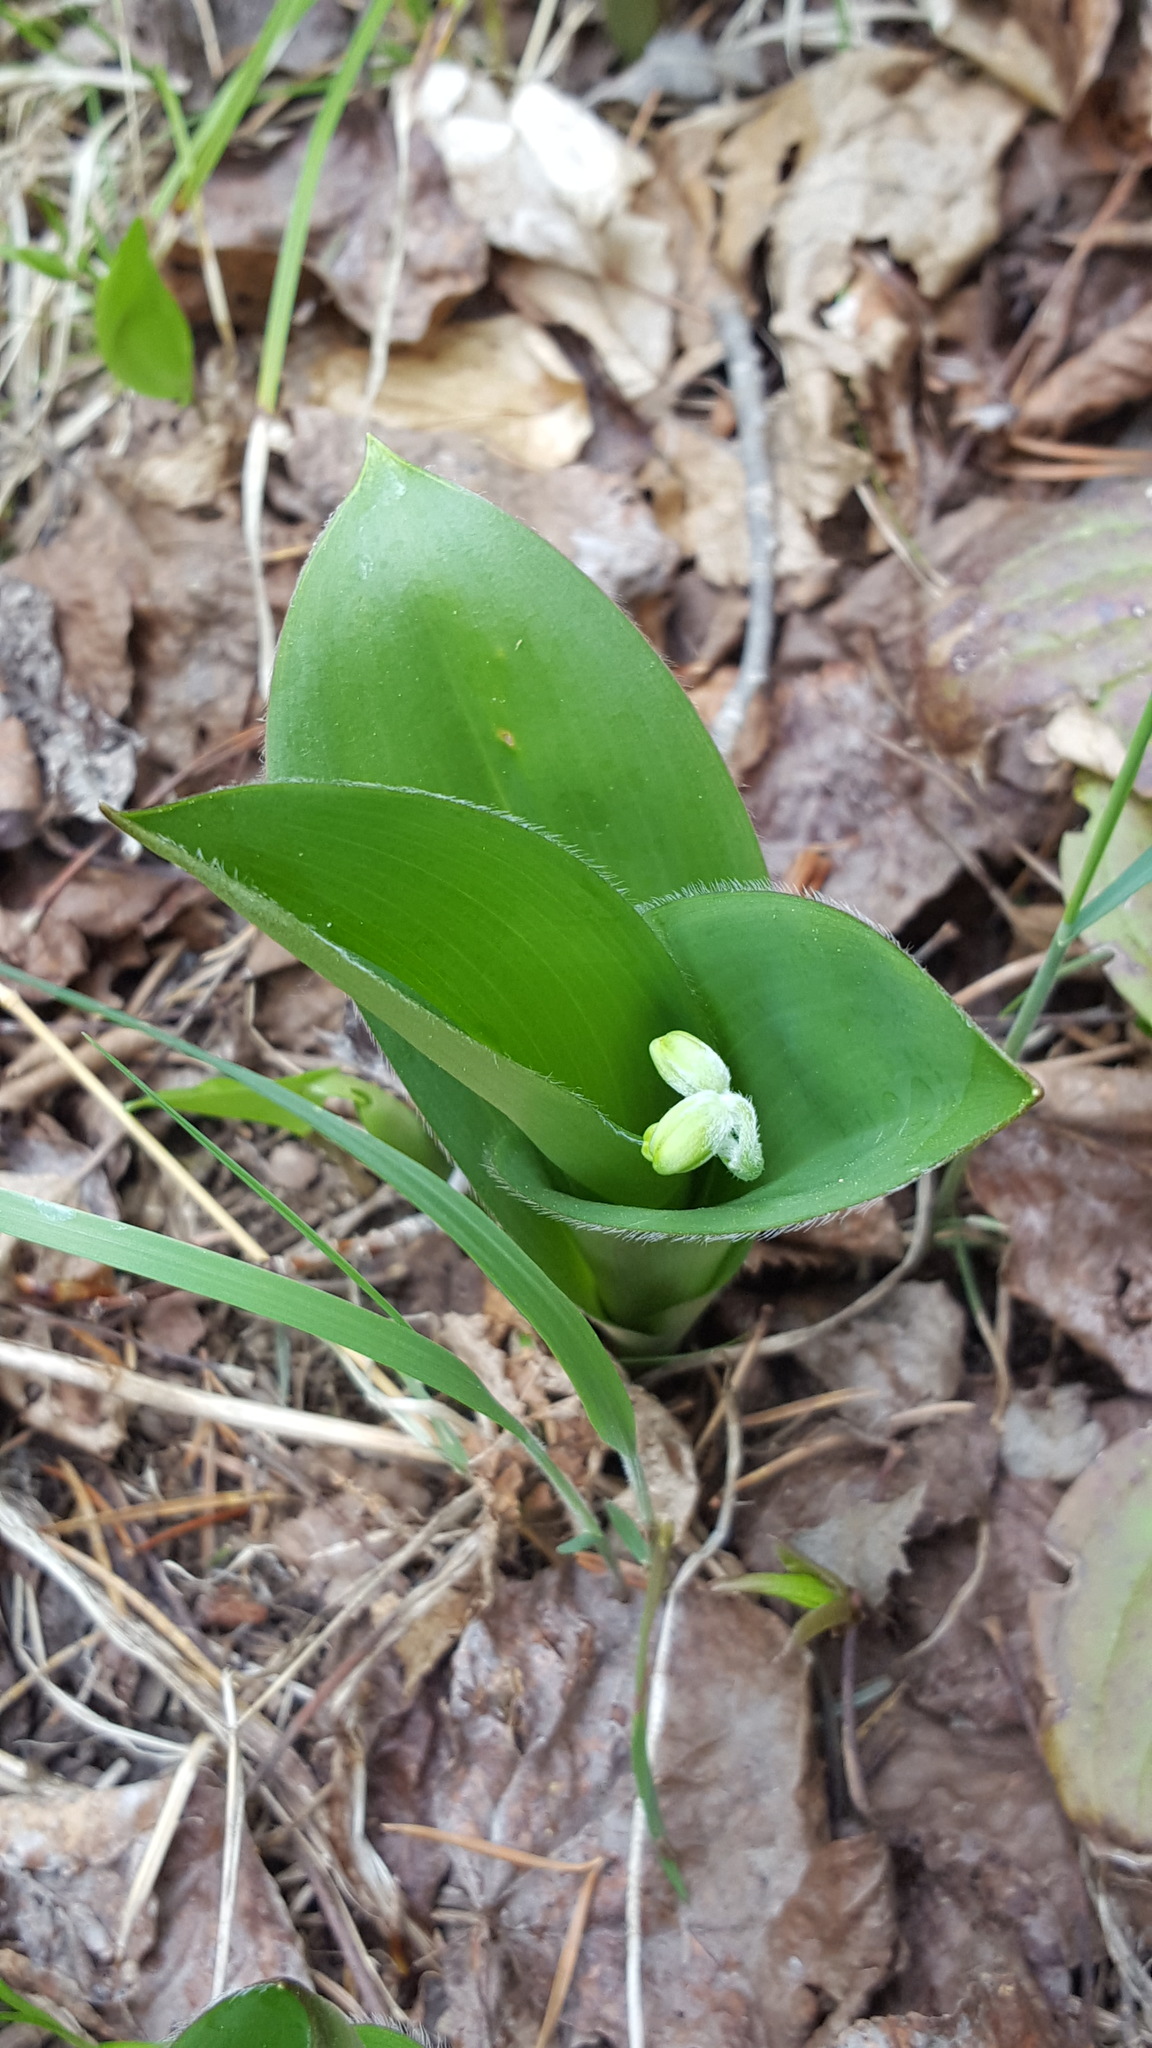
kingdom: Plantae
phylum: Tracheophyta
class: Liliopsida
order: Liliales
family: Liliaceae
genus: Clintonia
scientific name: Clintonia borealis
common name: Yellow clintonia
